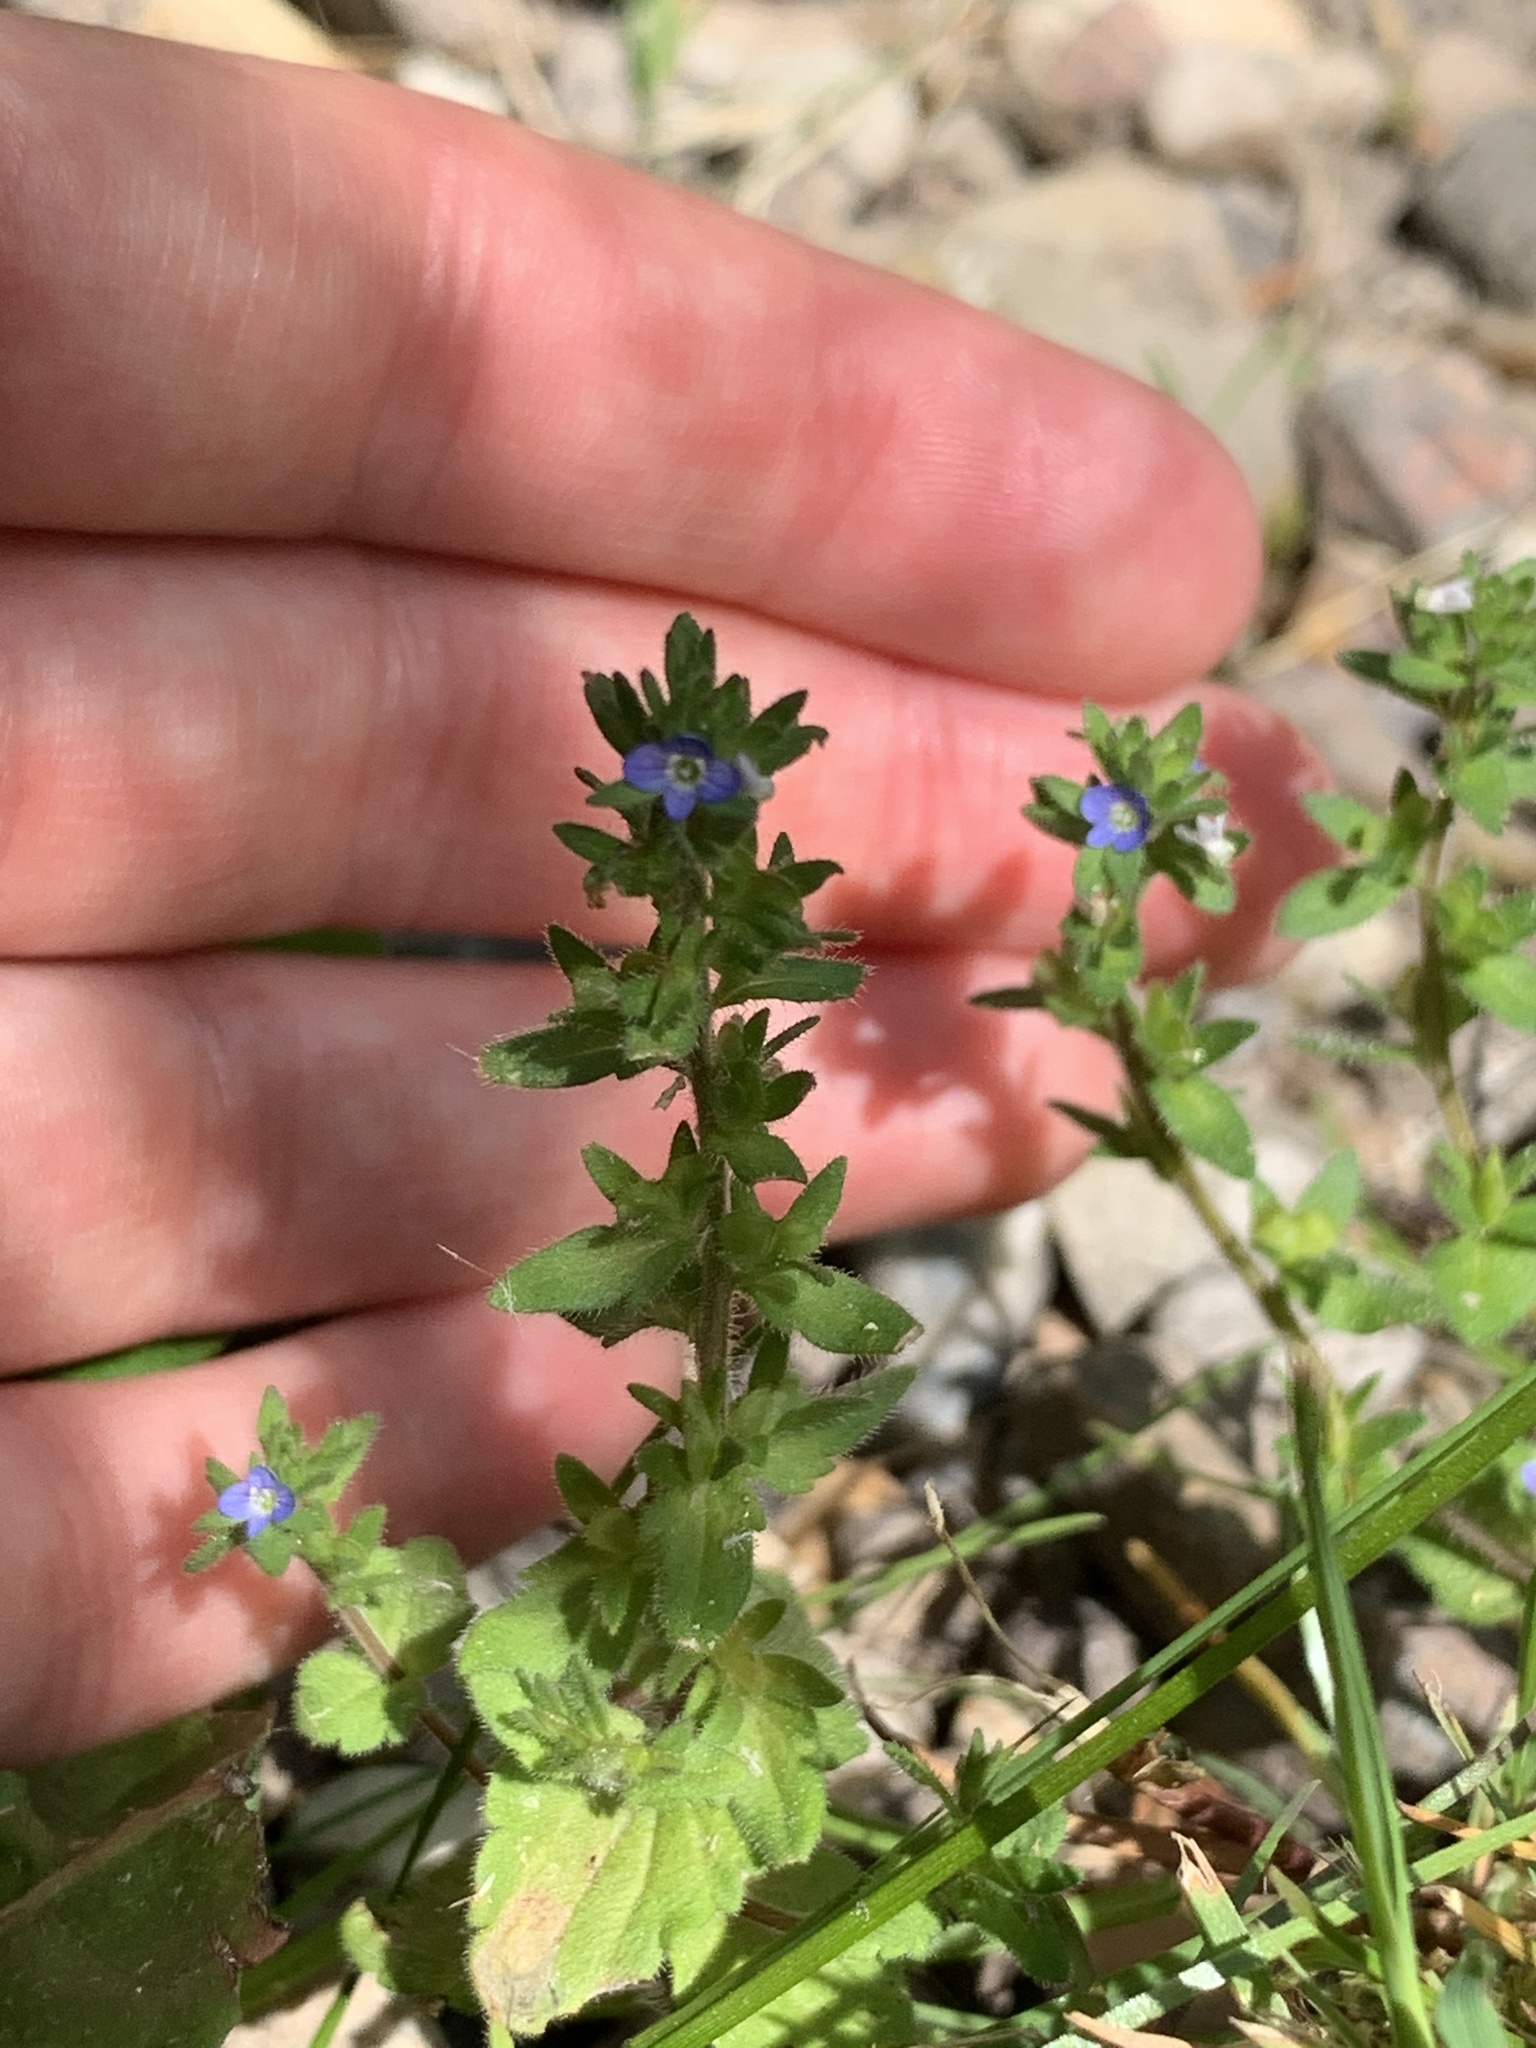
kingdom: Plantae
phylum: Tracheophyta
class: Magnoliopsida
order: Lamiales
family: Plantaginaceae
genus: Veronica
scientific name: Veronica arvensis
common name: Corn speedwell
